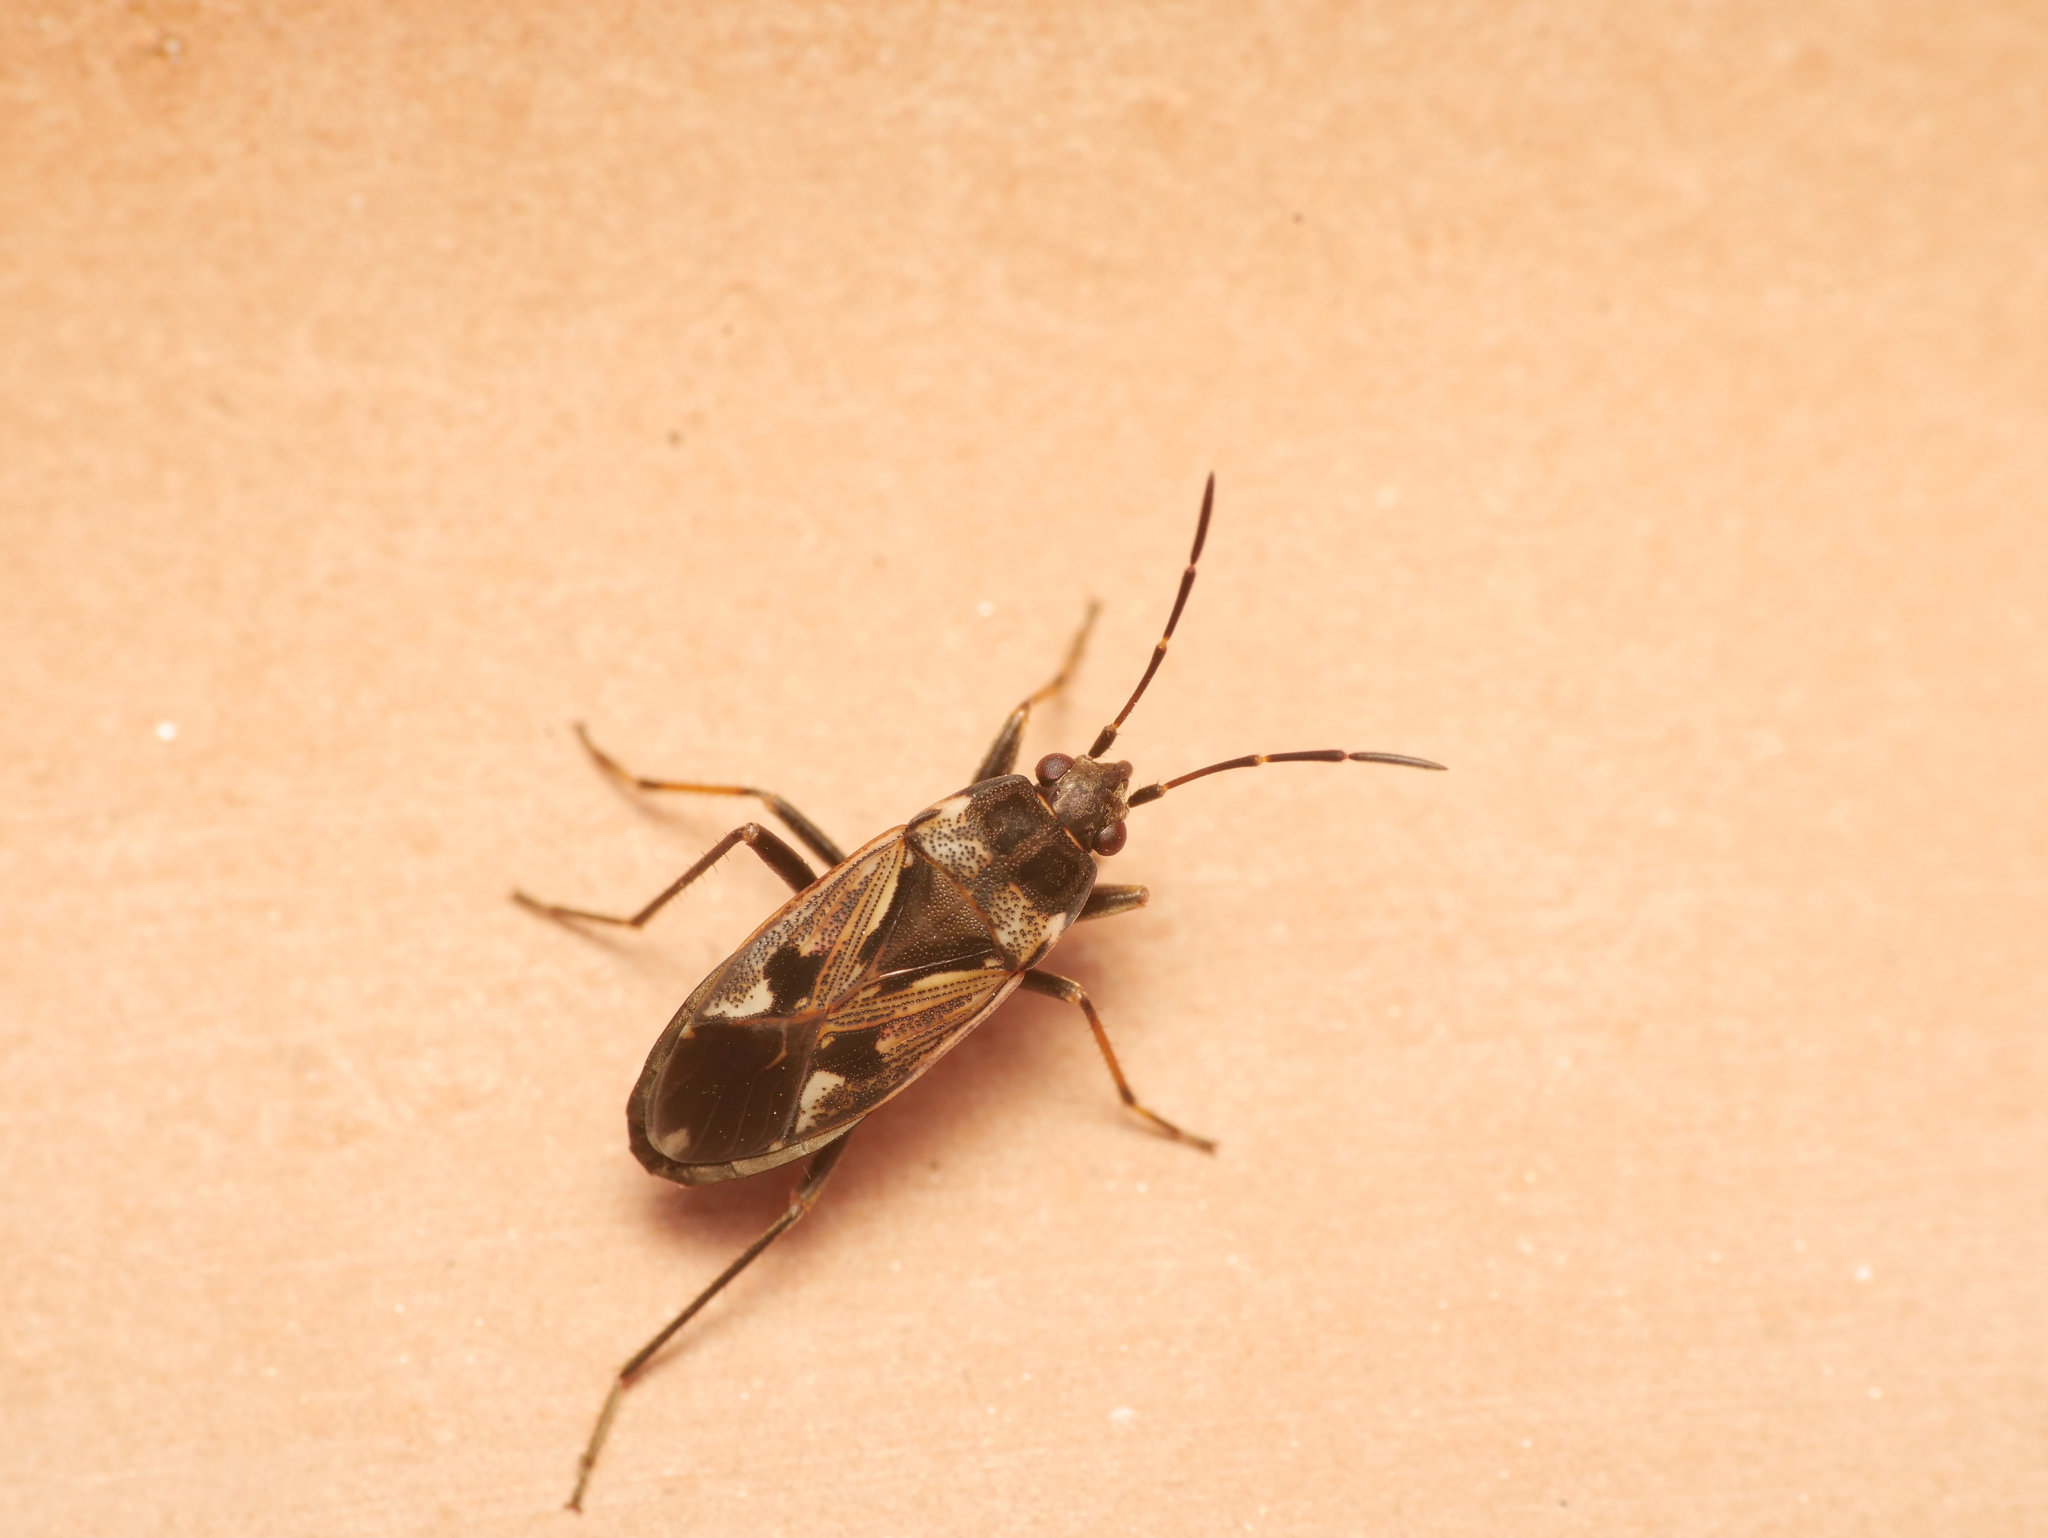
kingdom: Animalia
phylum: Arthropoda
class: Insecta
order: Hemiptera
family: Rhyparochromidae
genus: Rhyparochromus
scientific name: Rhyparochromus vulgaris
